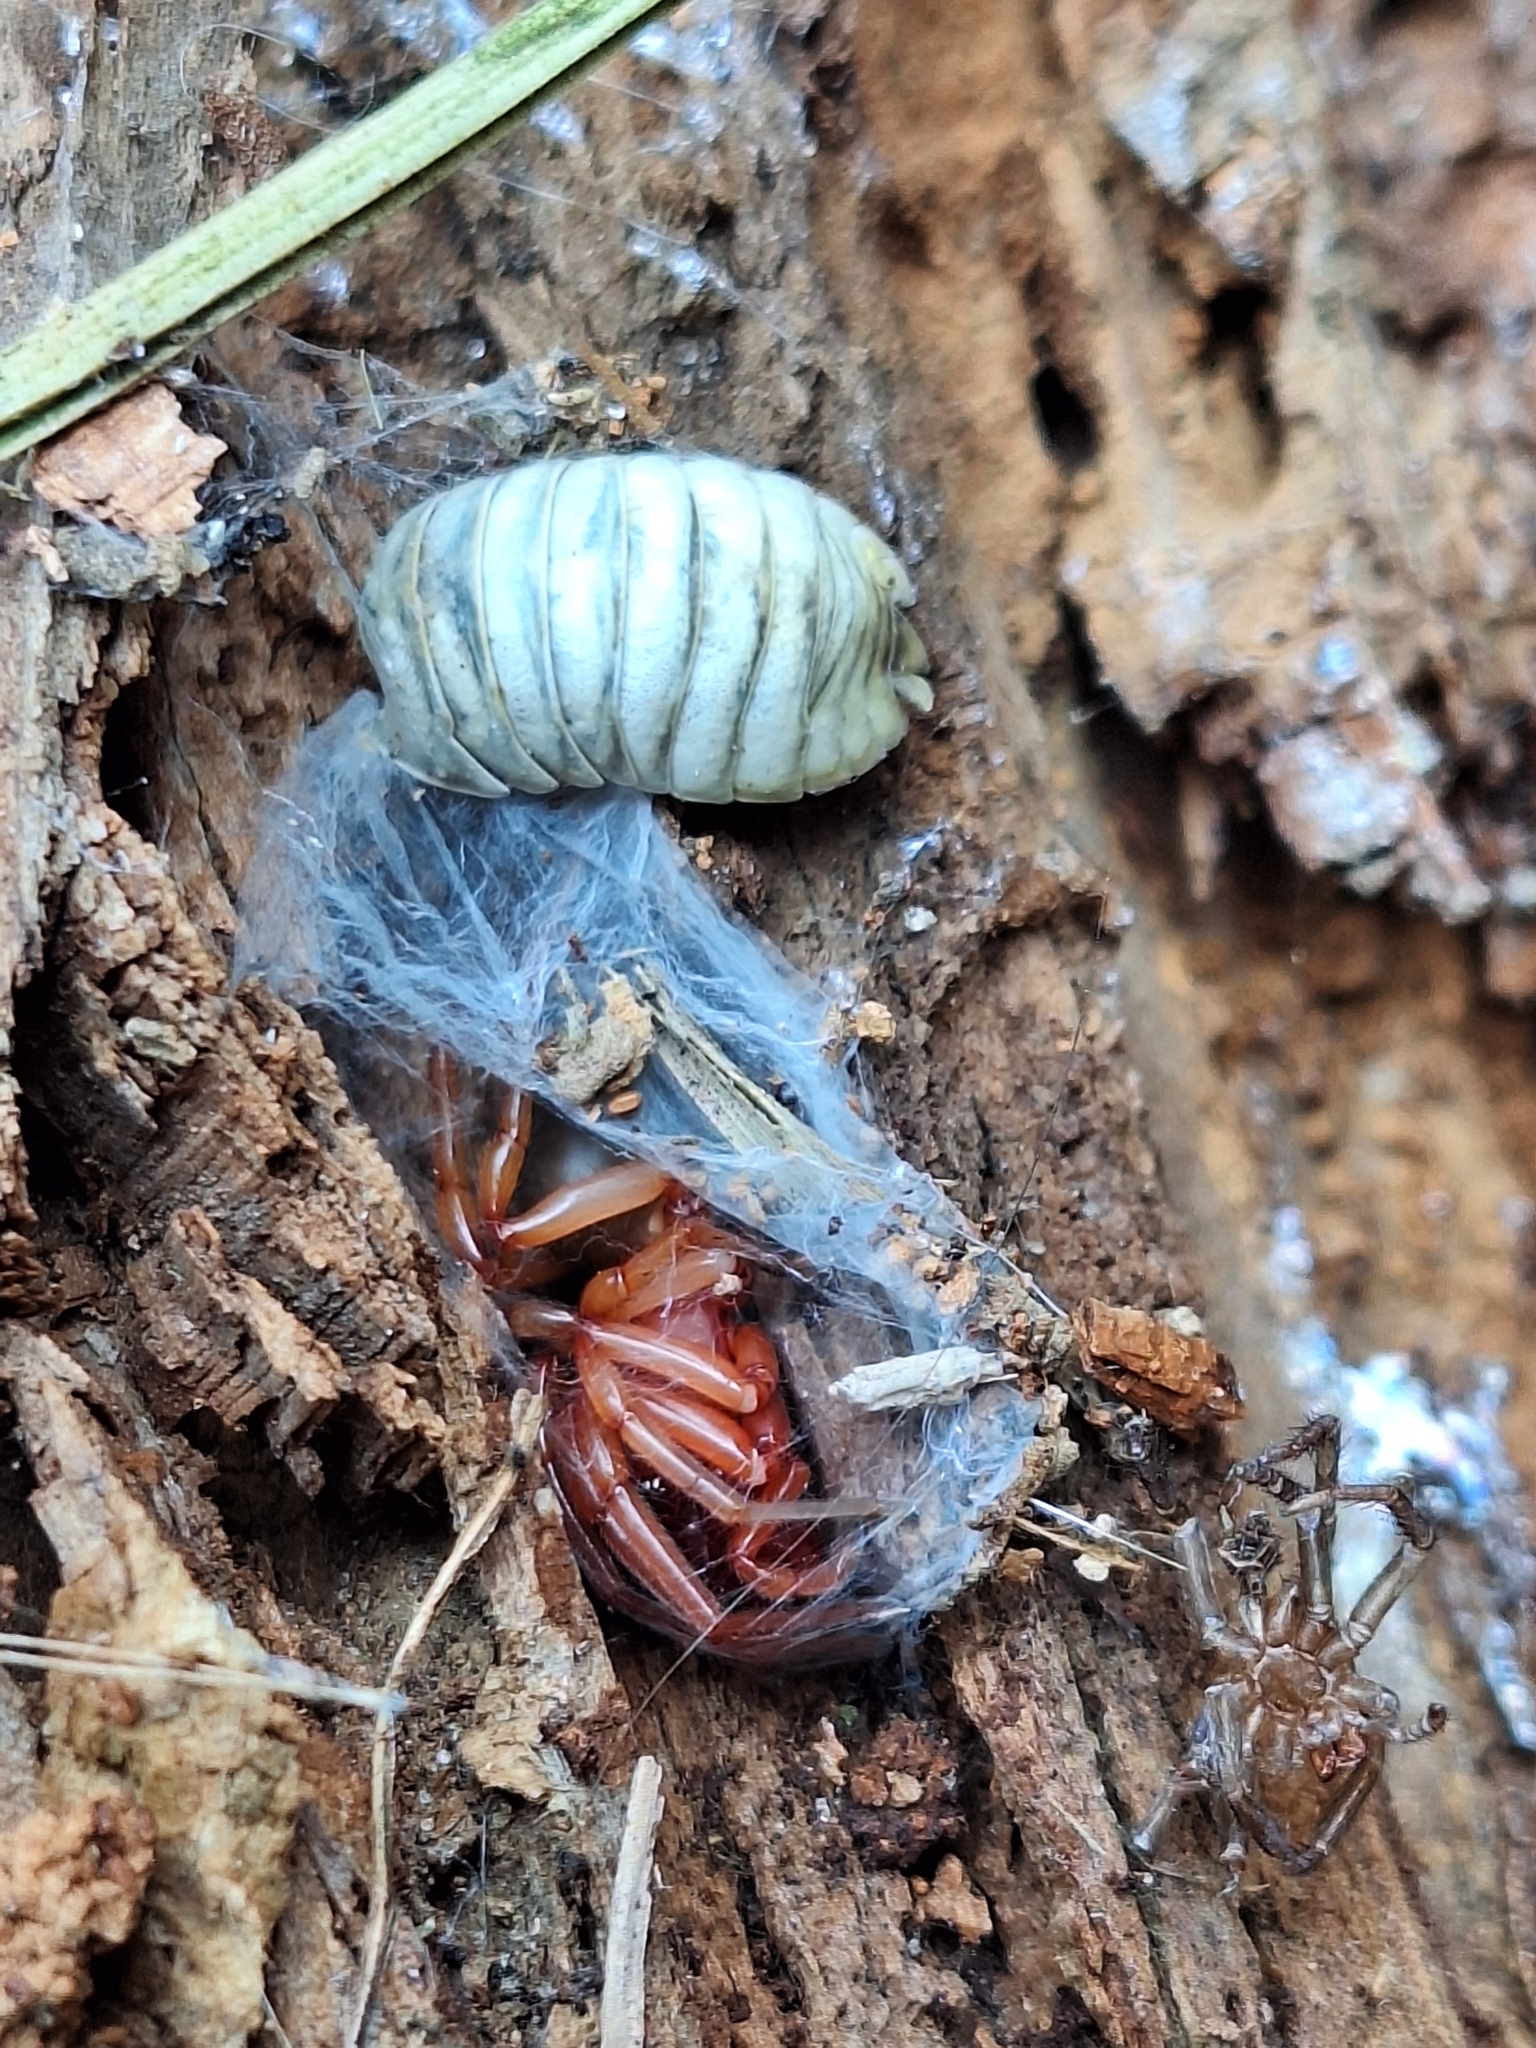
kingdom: Animalia
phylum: Arthropoda
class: Arachnida
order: Araneae
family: Dysderidae
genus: Dysdera
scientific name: Dysdera crocata
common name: Woodlouse spider
